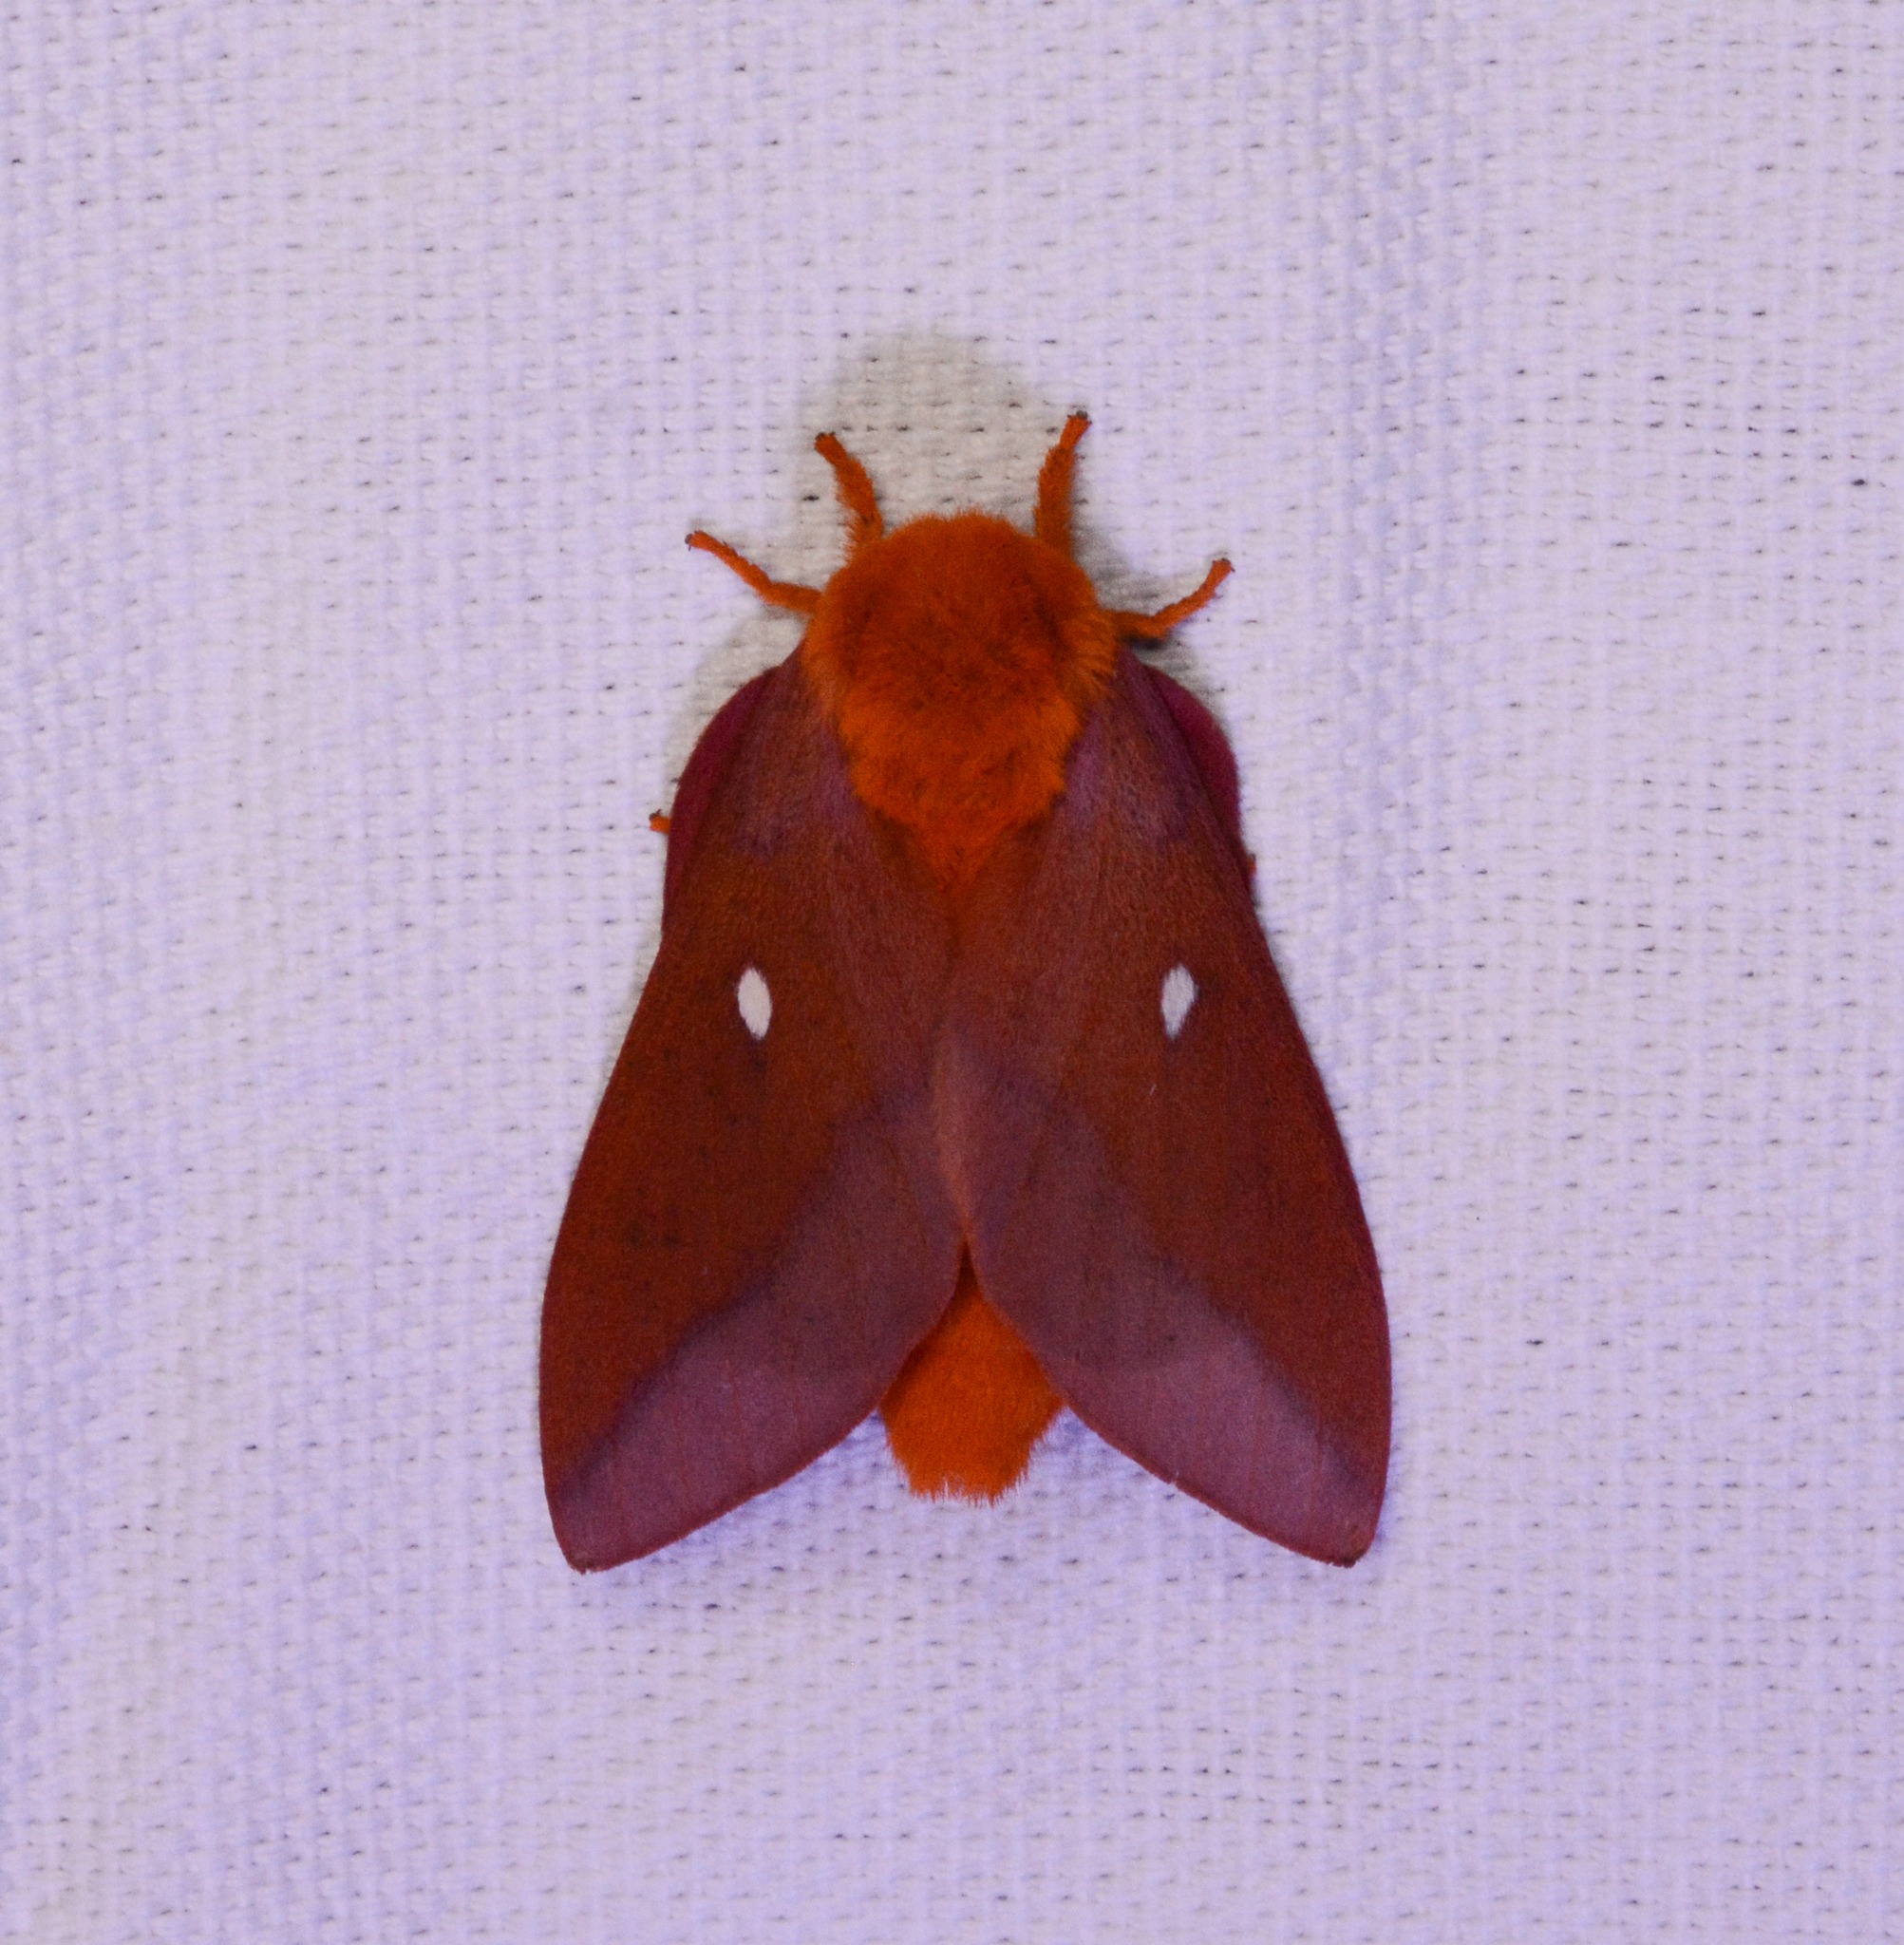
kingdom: Animalia
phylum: Arthropoda
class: Insecta
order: Lepidoptera
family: Saturniidae
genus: Anisota
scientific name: Anisota virginiensis
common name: Pink striped oakworm moth
